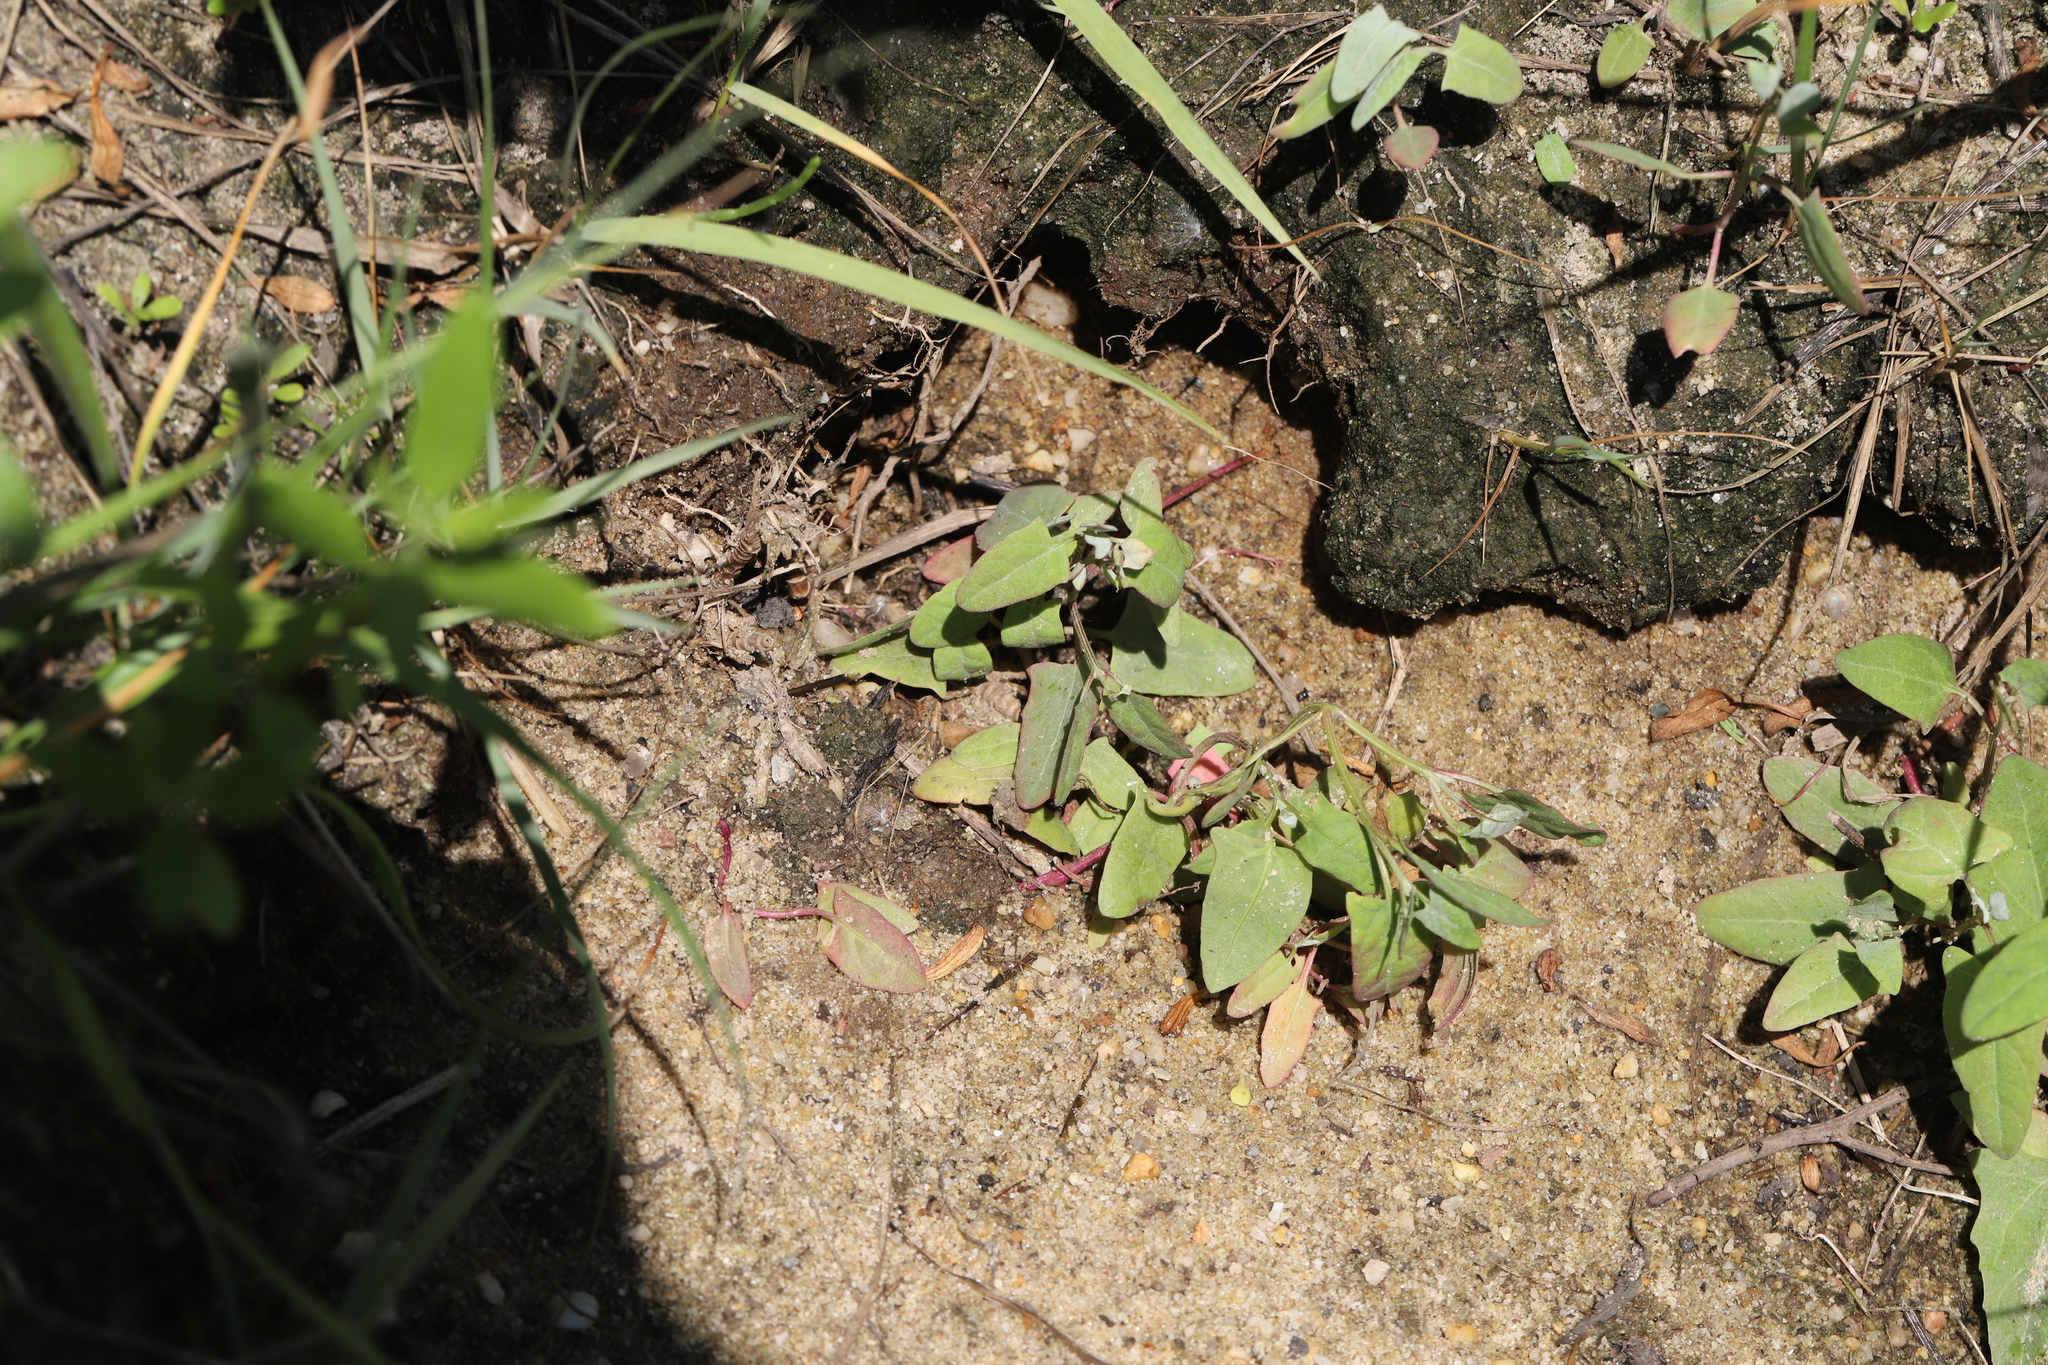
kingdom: Plantae
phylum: Tracheophyta
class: Magnoliopsida
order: Caryophyllales
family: Amaranthaceae
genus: Atriplex
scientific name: Atriplex prostrata
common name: Spear-leaved orache
